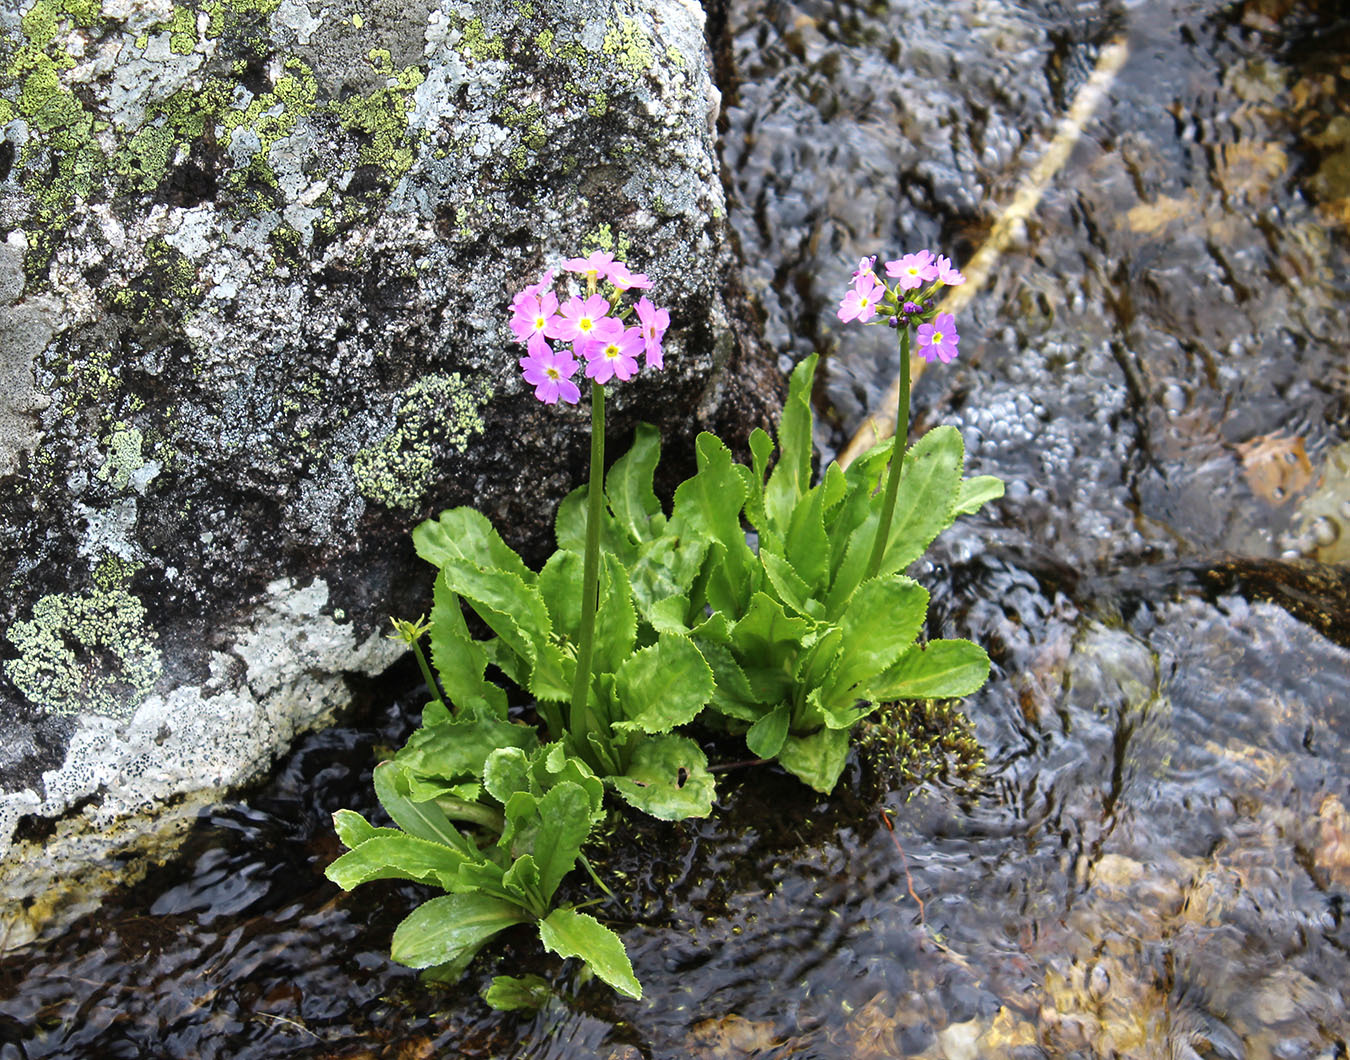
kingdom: Plantae
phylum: Tracheophyta
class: Magnoliopsida
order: Ericales
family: Primulaceae
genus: Primula
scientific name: Primula auriculata
